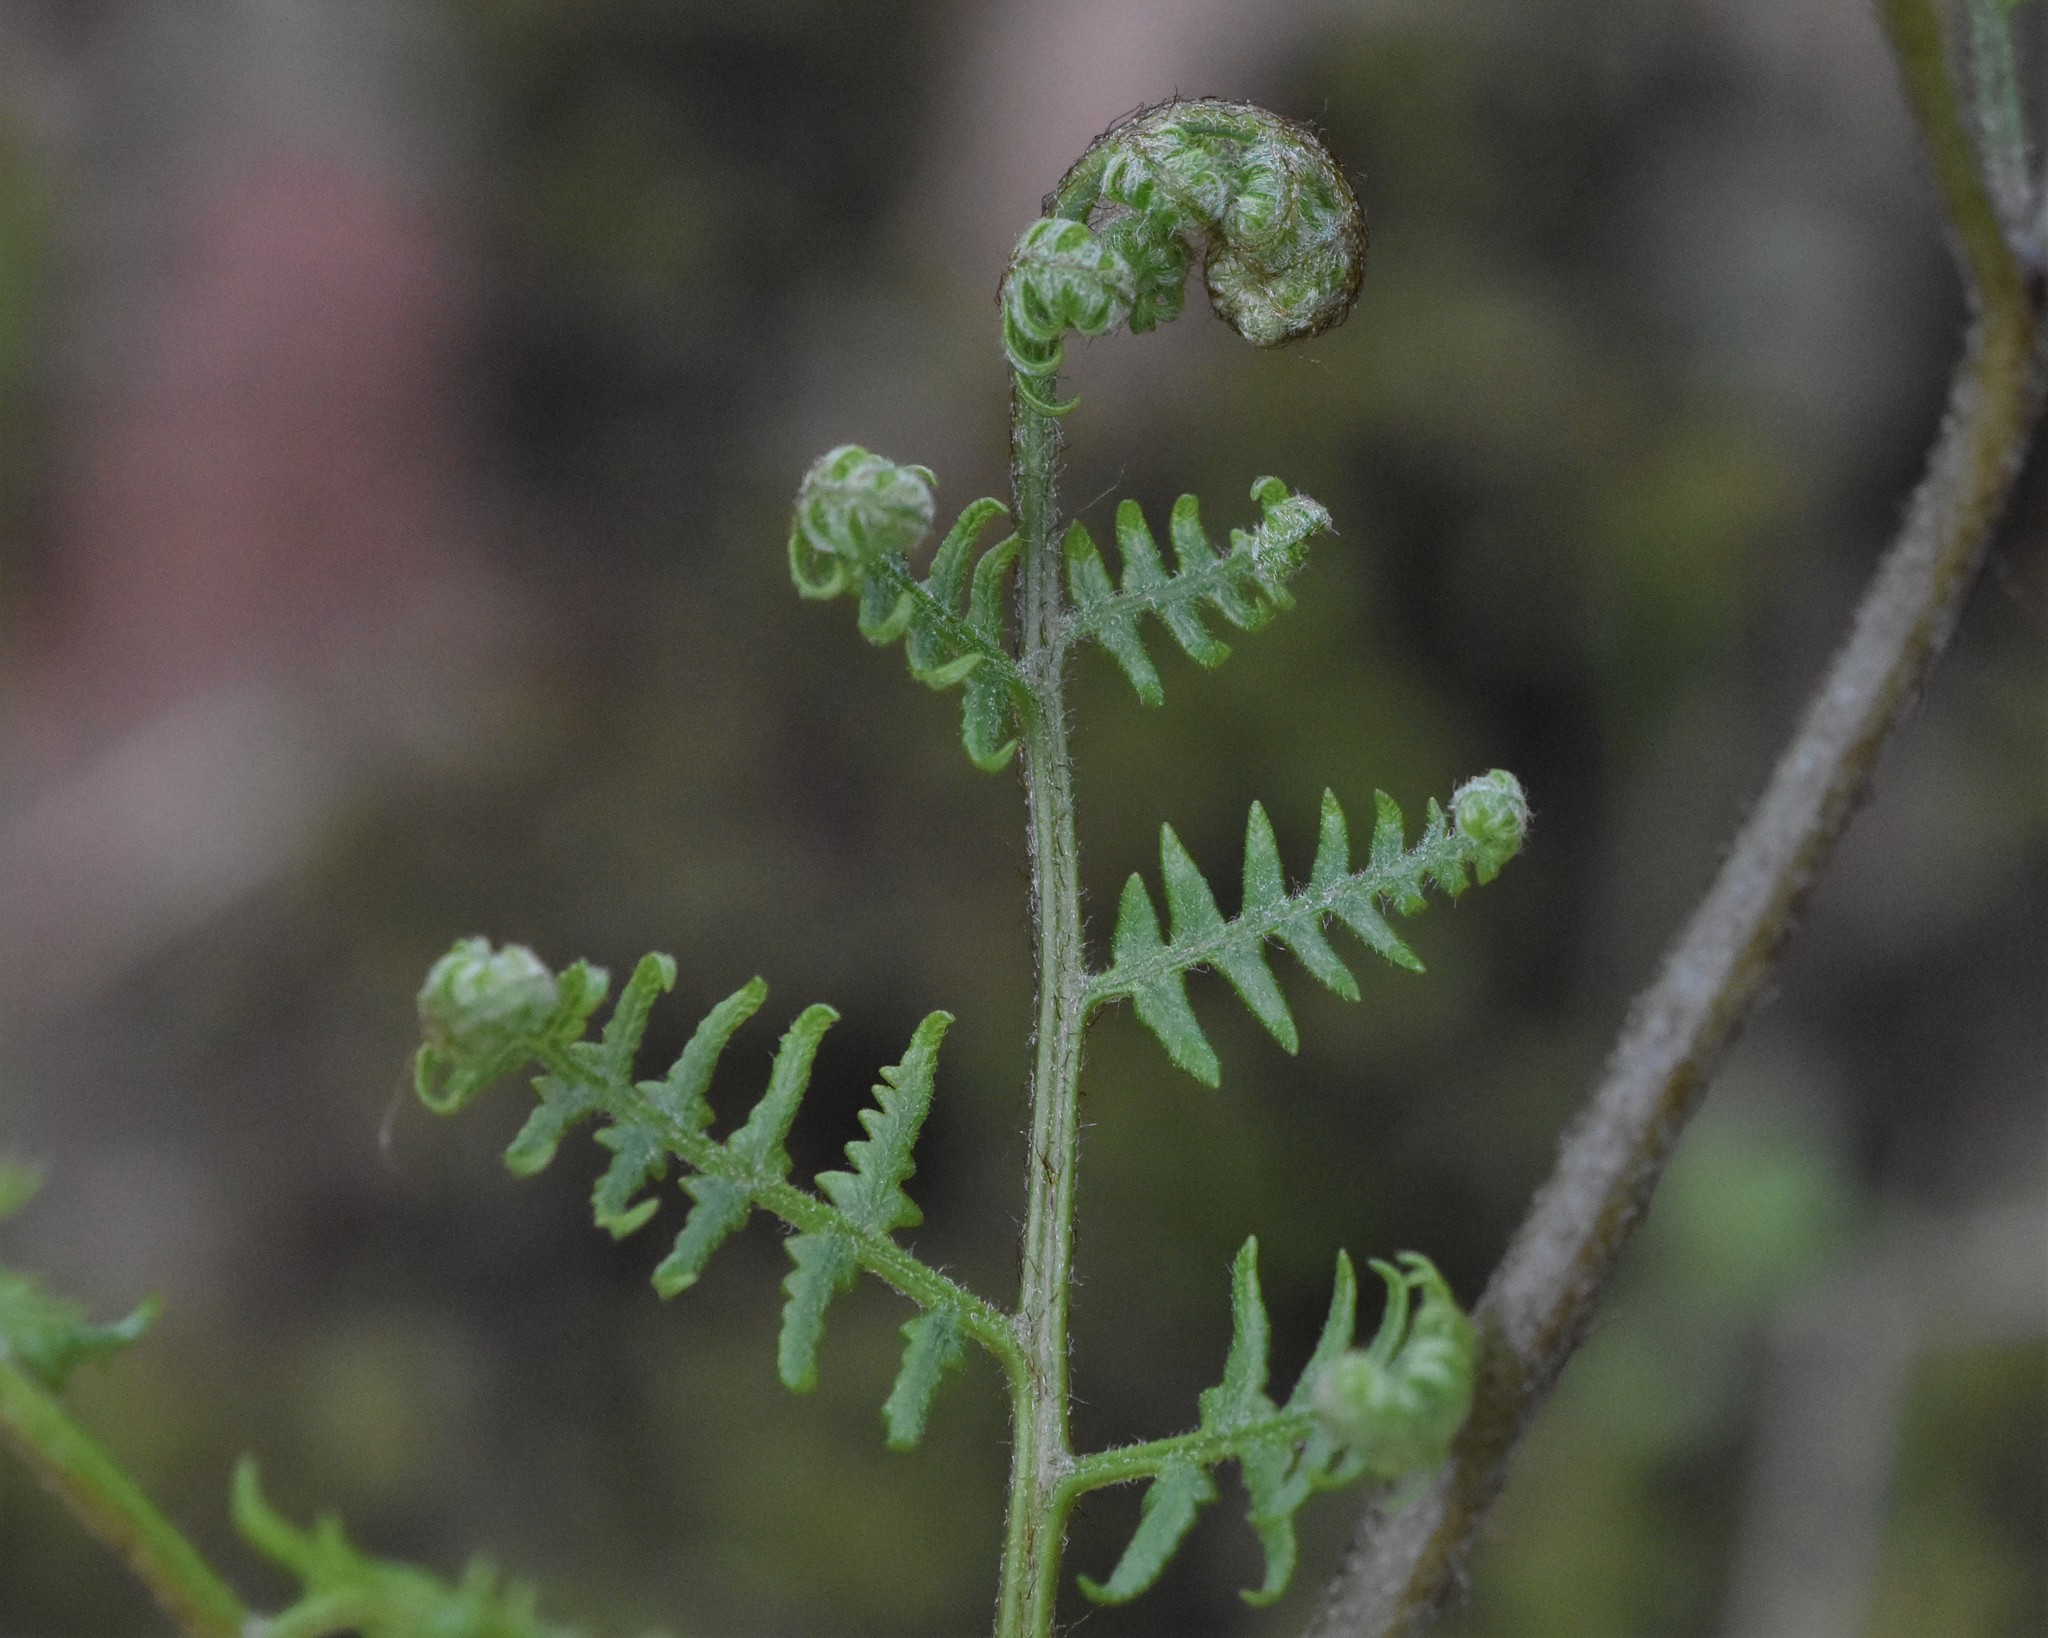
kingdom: Plantae
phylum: Tracheophyta
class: Polypodiopsida
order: Polypodiales
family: Dennstaedtiaceae
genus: Pteridium
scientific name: Pteridium aquilinum
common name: Bracken
